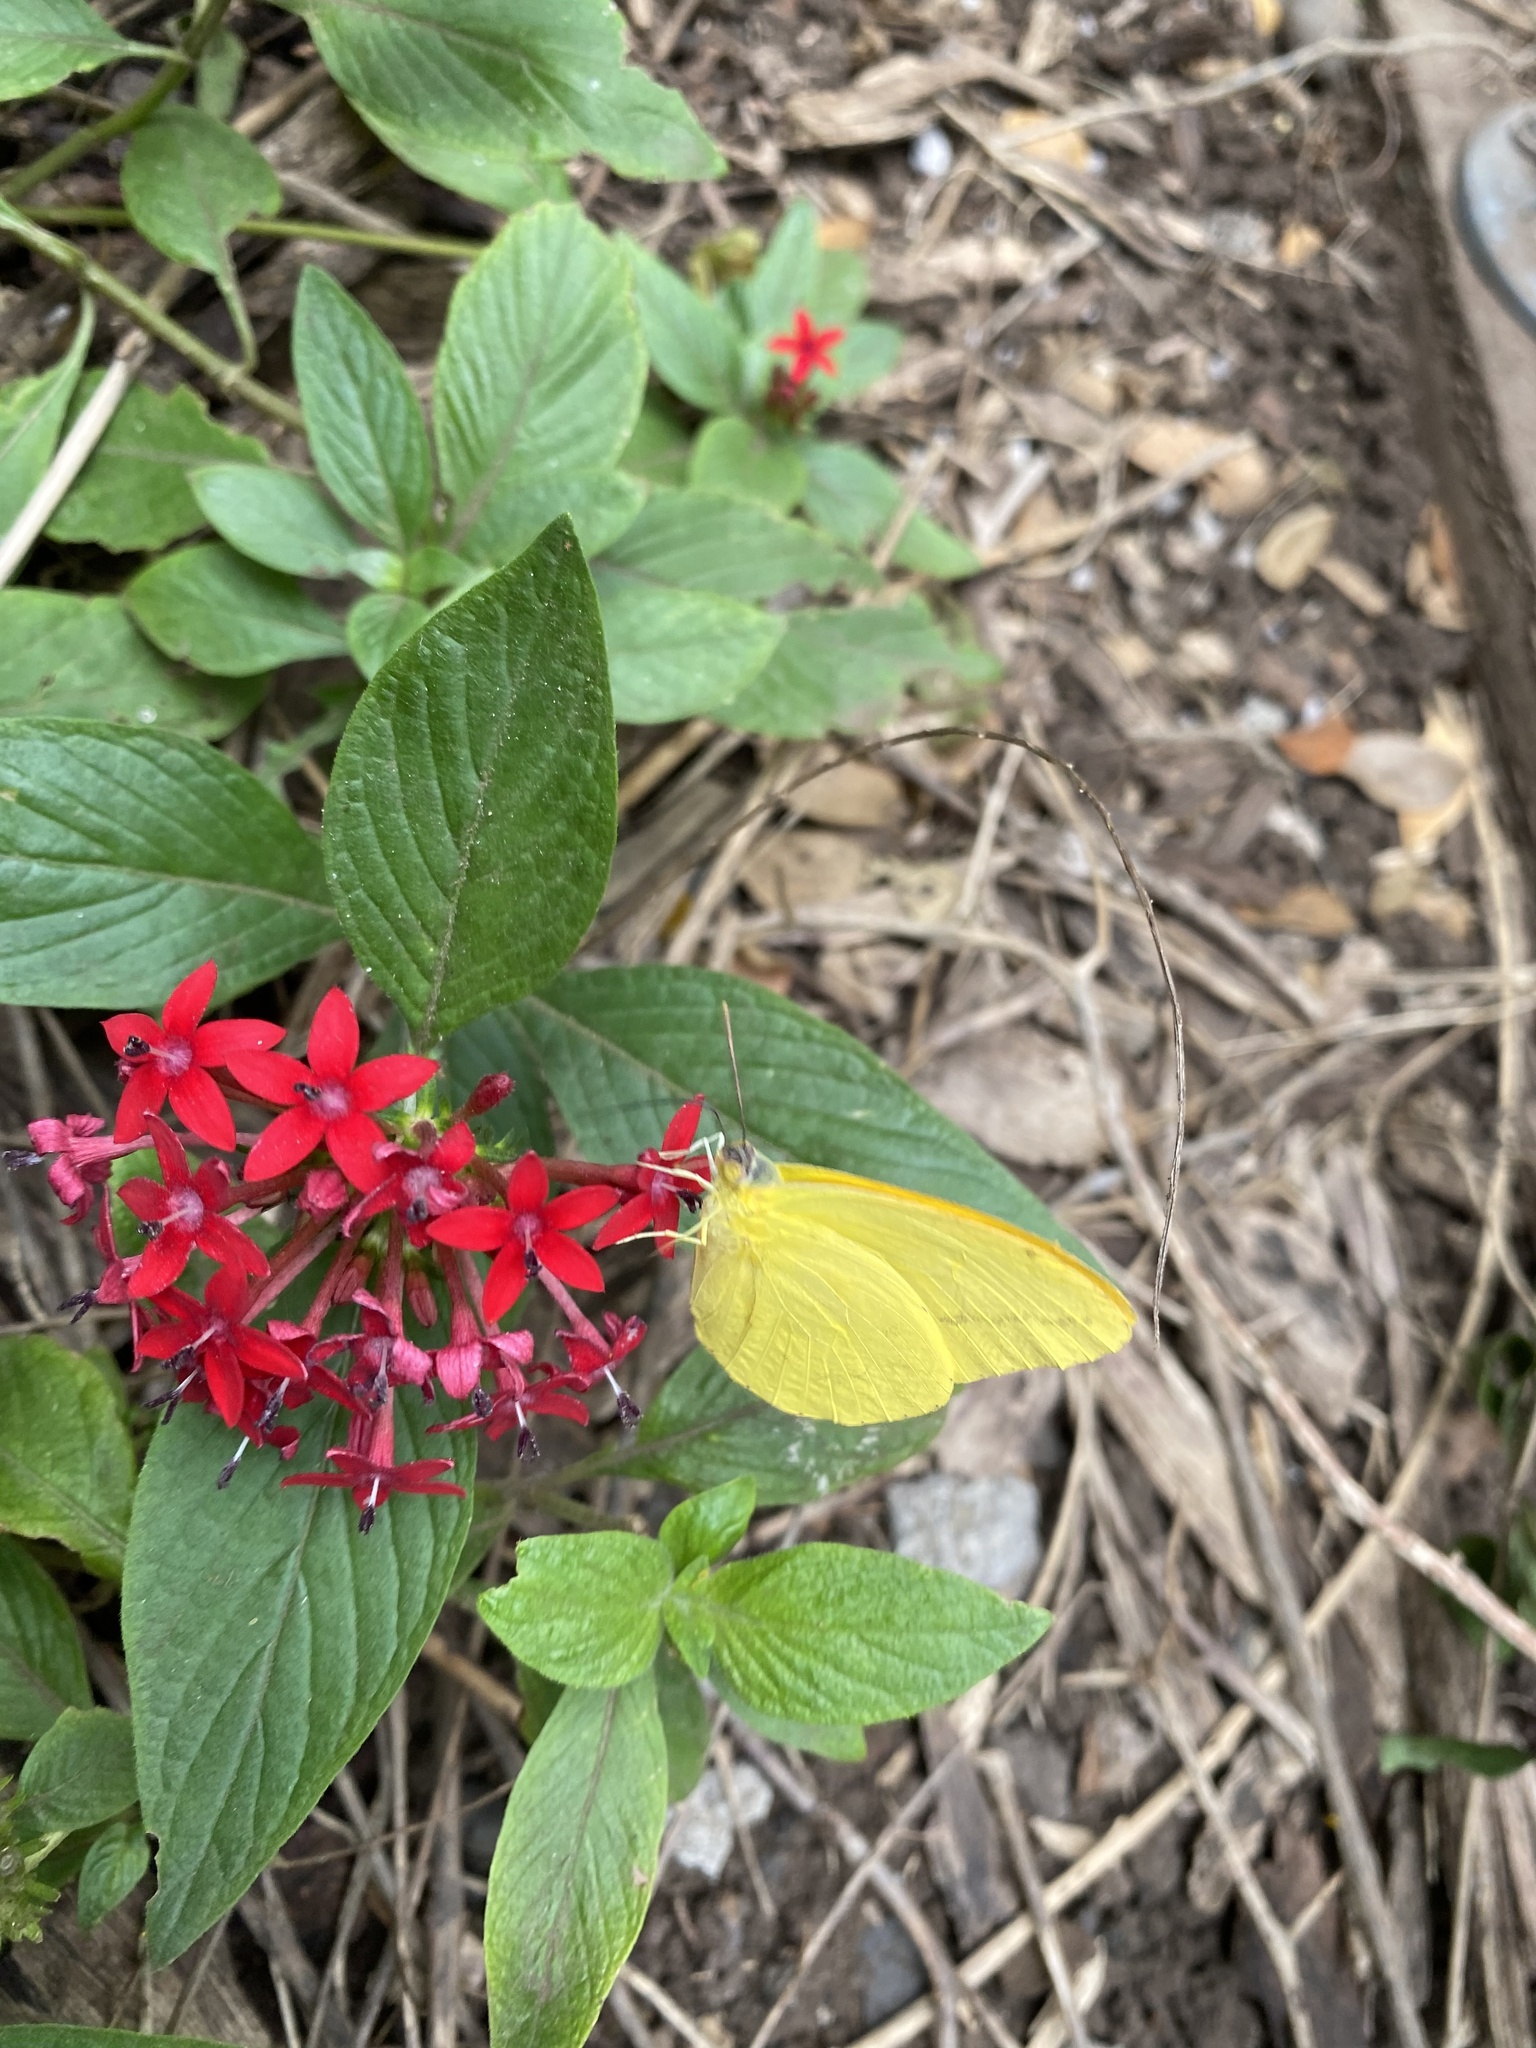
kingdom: Animalia
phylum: Arthropoda
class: Insecta
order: Lepidoptera
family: Pieridae
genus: Phoebis
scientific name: Phoebis agarithe
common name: Large orange sulphur
